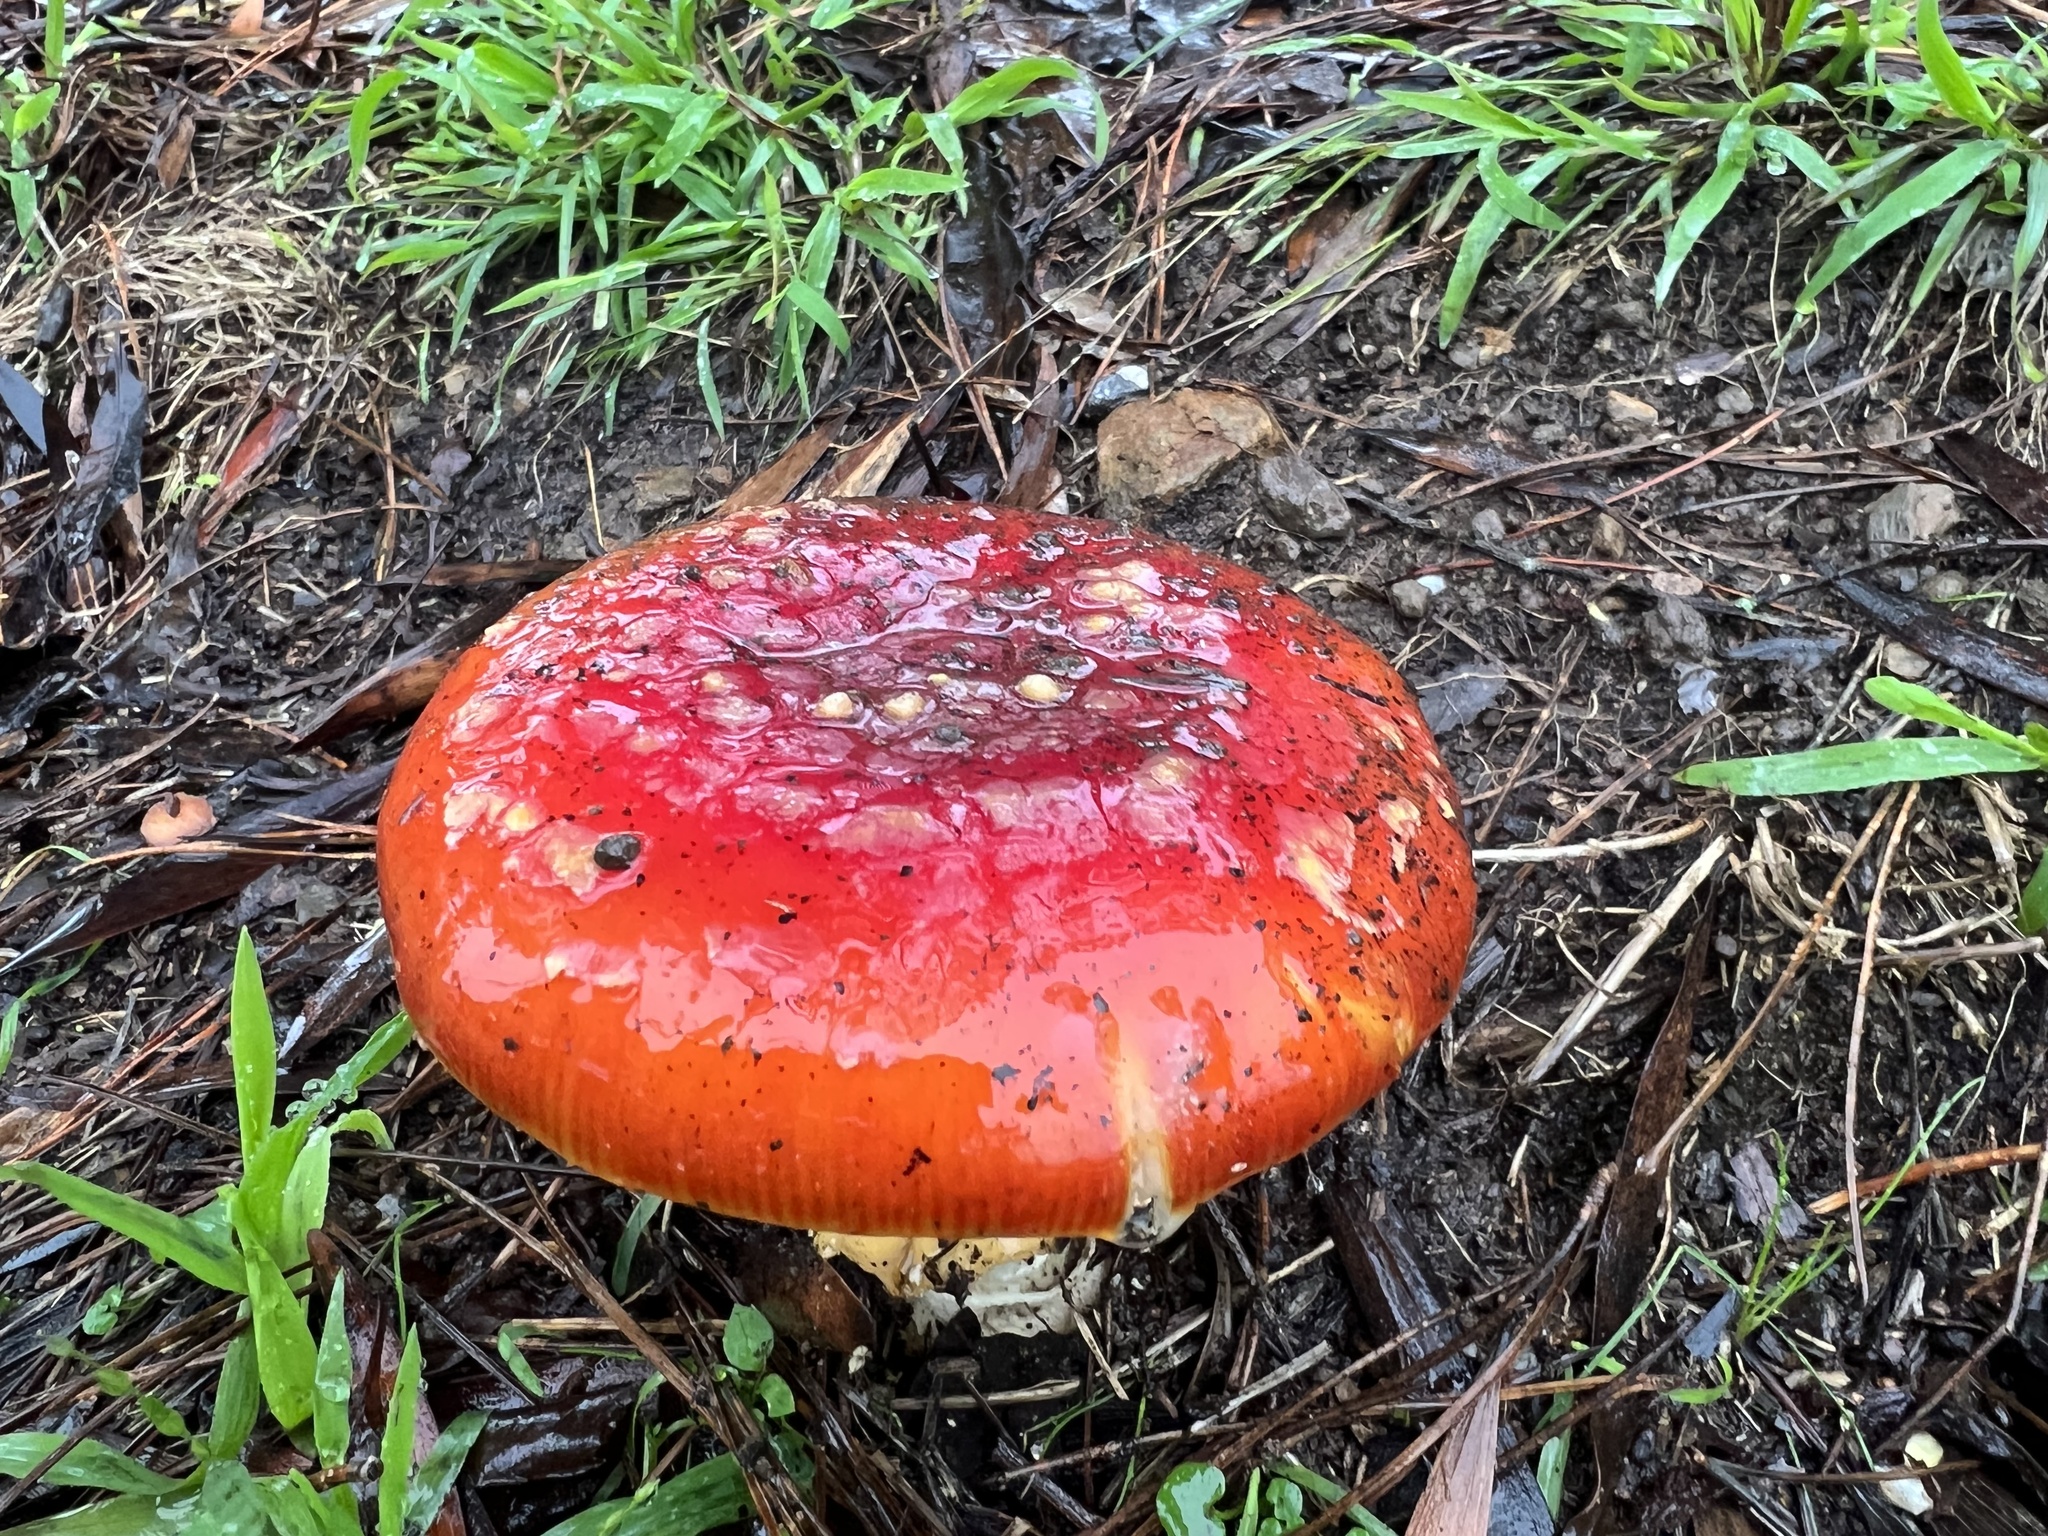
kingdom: Fungi
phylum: Basidiomycota
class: Agaricomycetes
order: Agaricales
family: Amanitaceae
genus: Amanita
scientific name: Amanita muscaria
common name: Fly agaric
